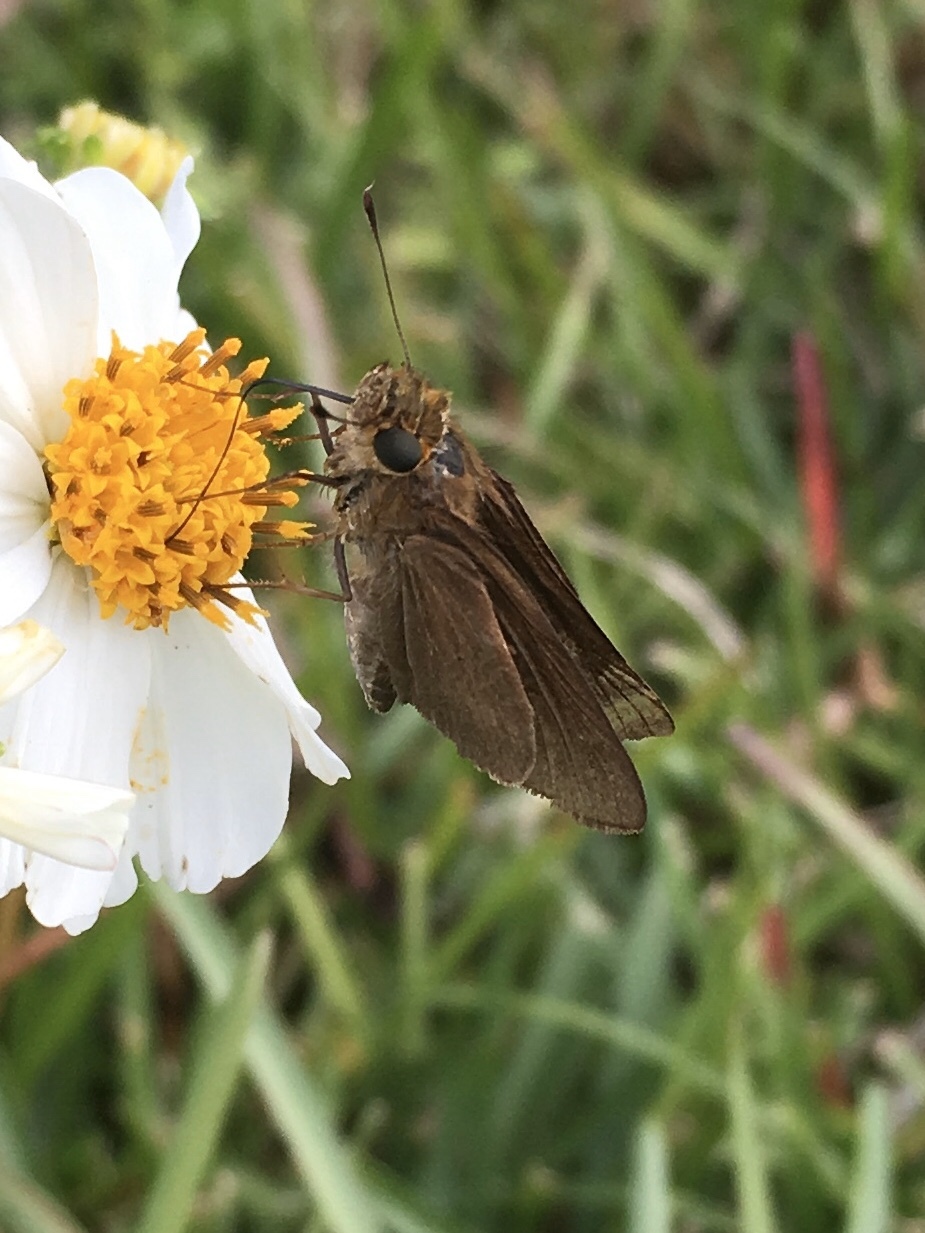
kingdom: Animalia
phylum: Arthropoda
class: Insecta
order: Lepidoptera
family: Hesperiidae
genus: Panoquina
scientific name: Panoquina ocola
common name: Ocola skipper
